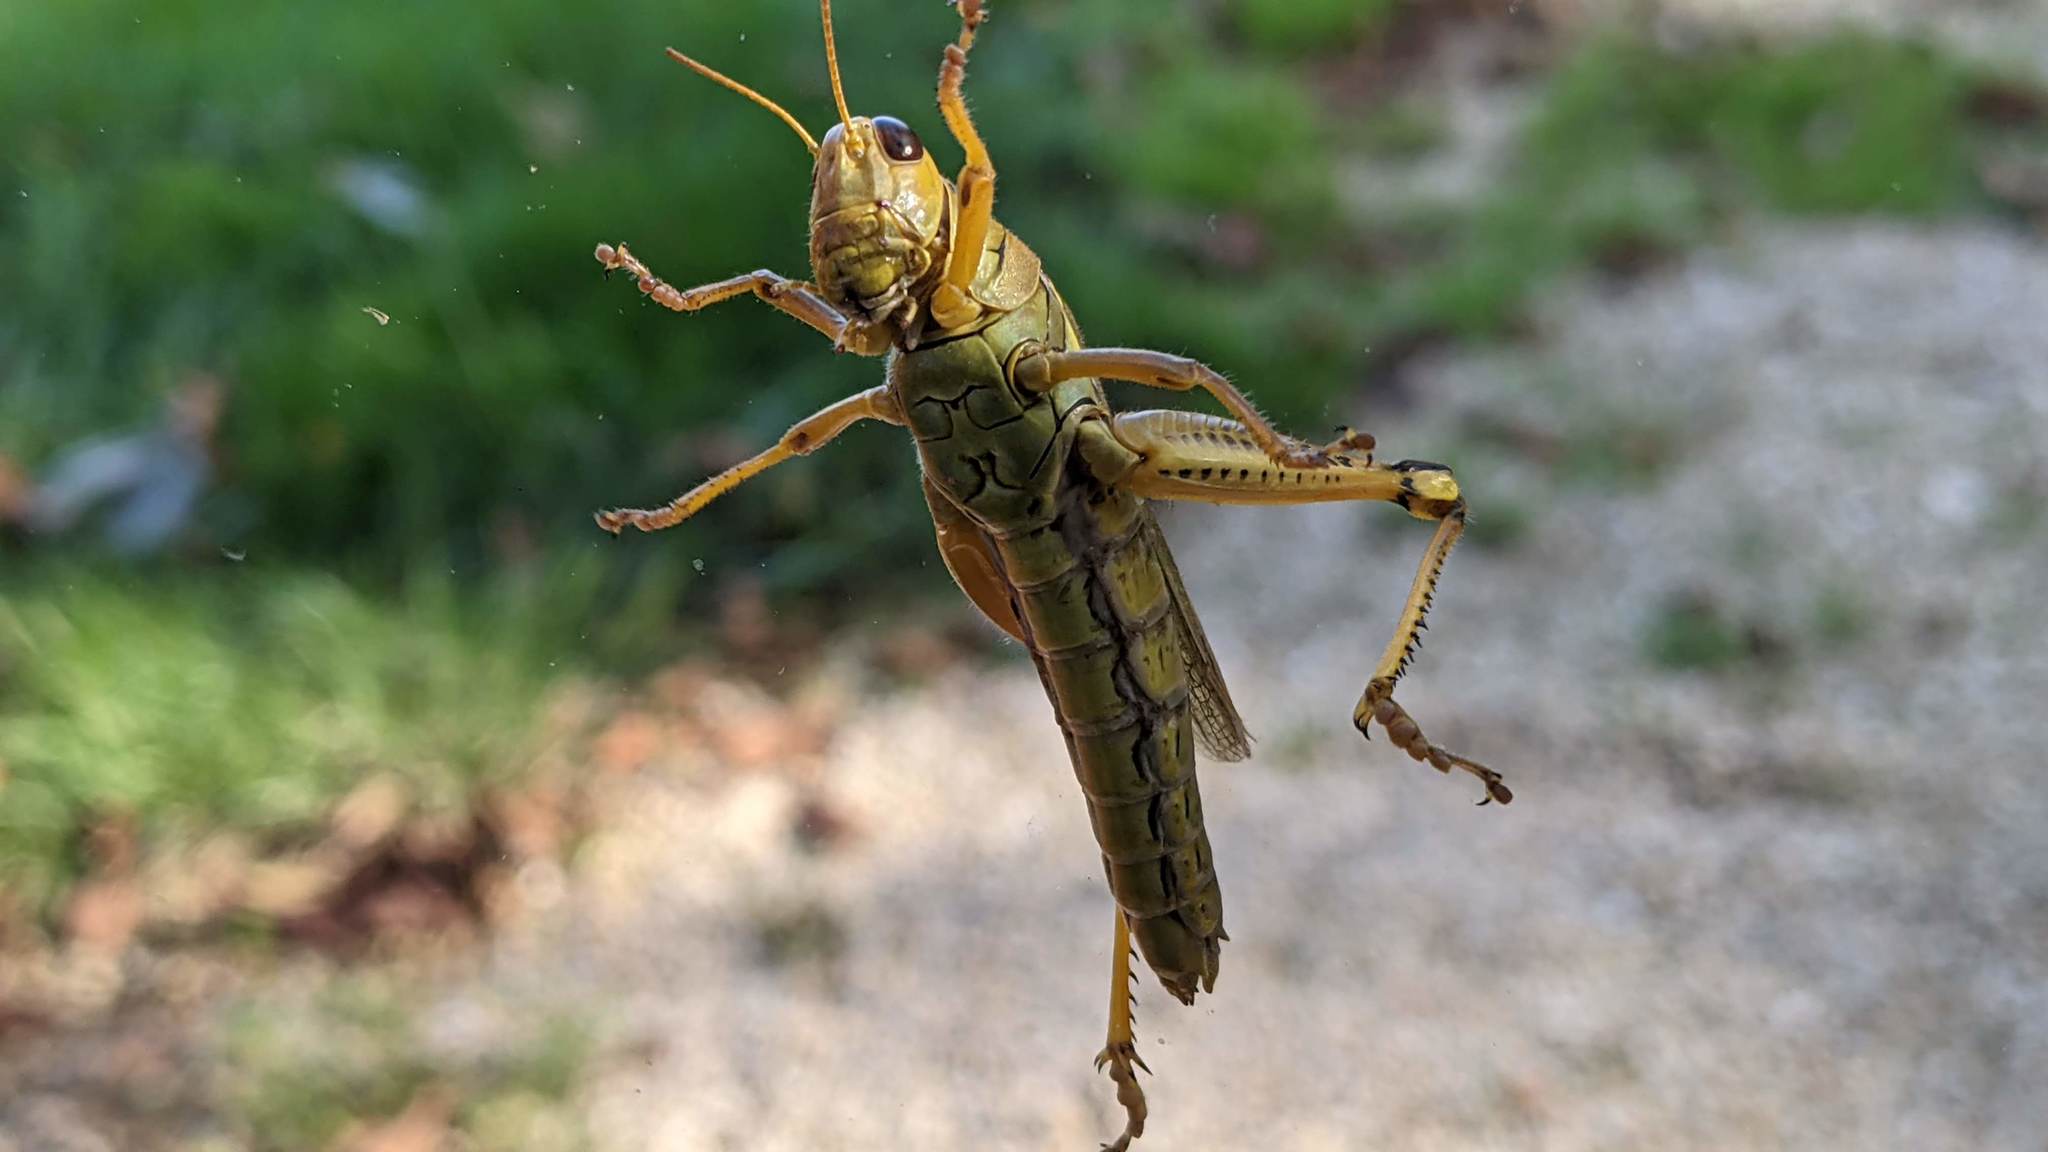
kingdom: Animalia
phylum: Arthropoda
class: Insecta
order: Orthoptera
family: Acrididae
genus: Melanoplus
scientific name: Melanoplus differentialis
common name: Differential grasshopper
